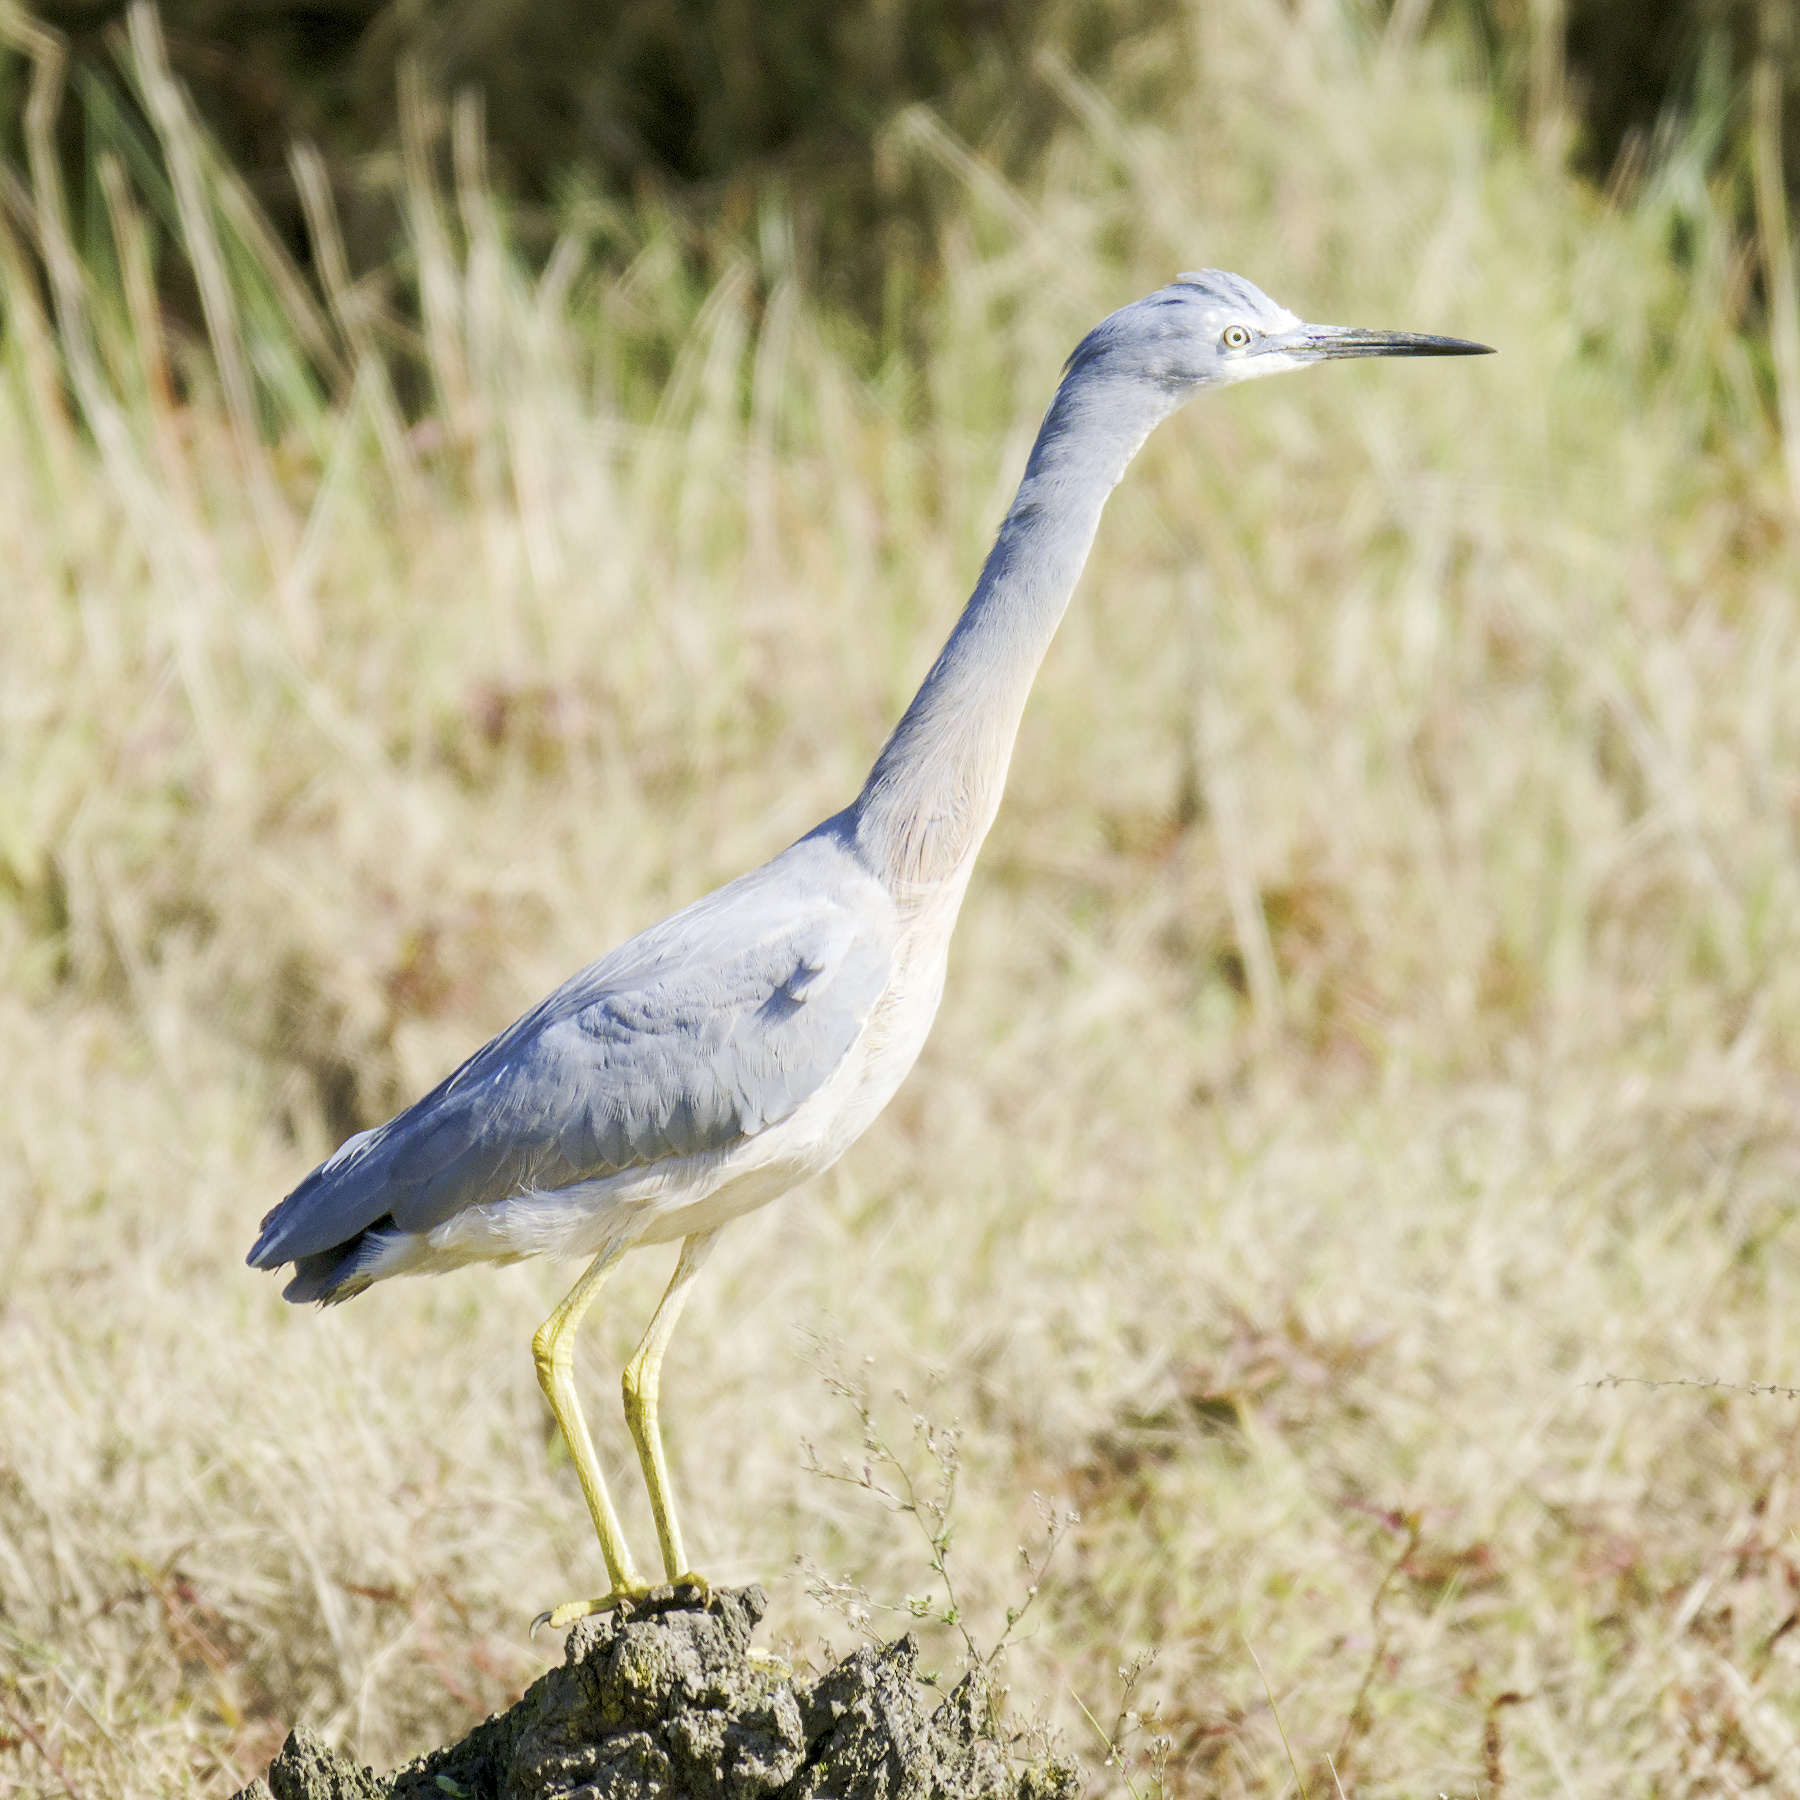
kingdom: Animalia
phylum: Chordata
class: Aves
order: Pelecaniformes
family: Ardeidae
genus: Egretta
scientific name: Egretta novaehollandiae
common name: White-faced heron
